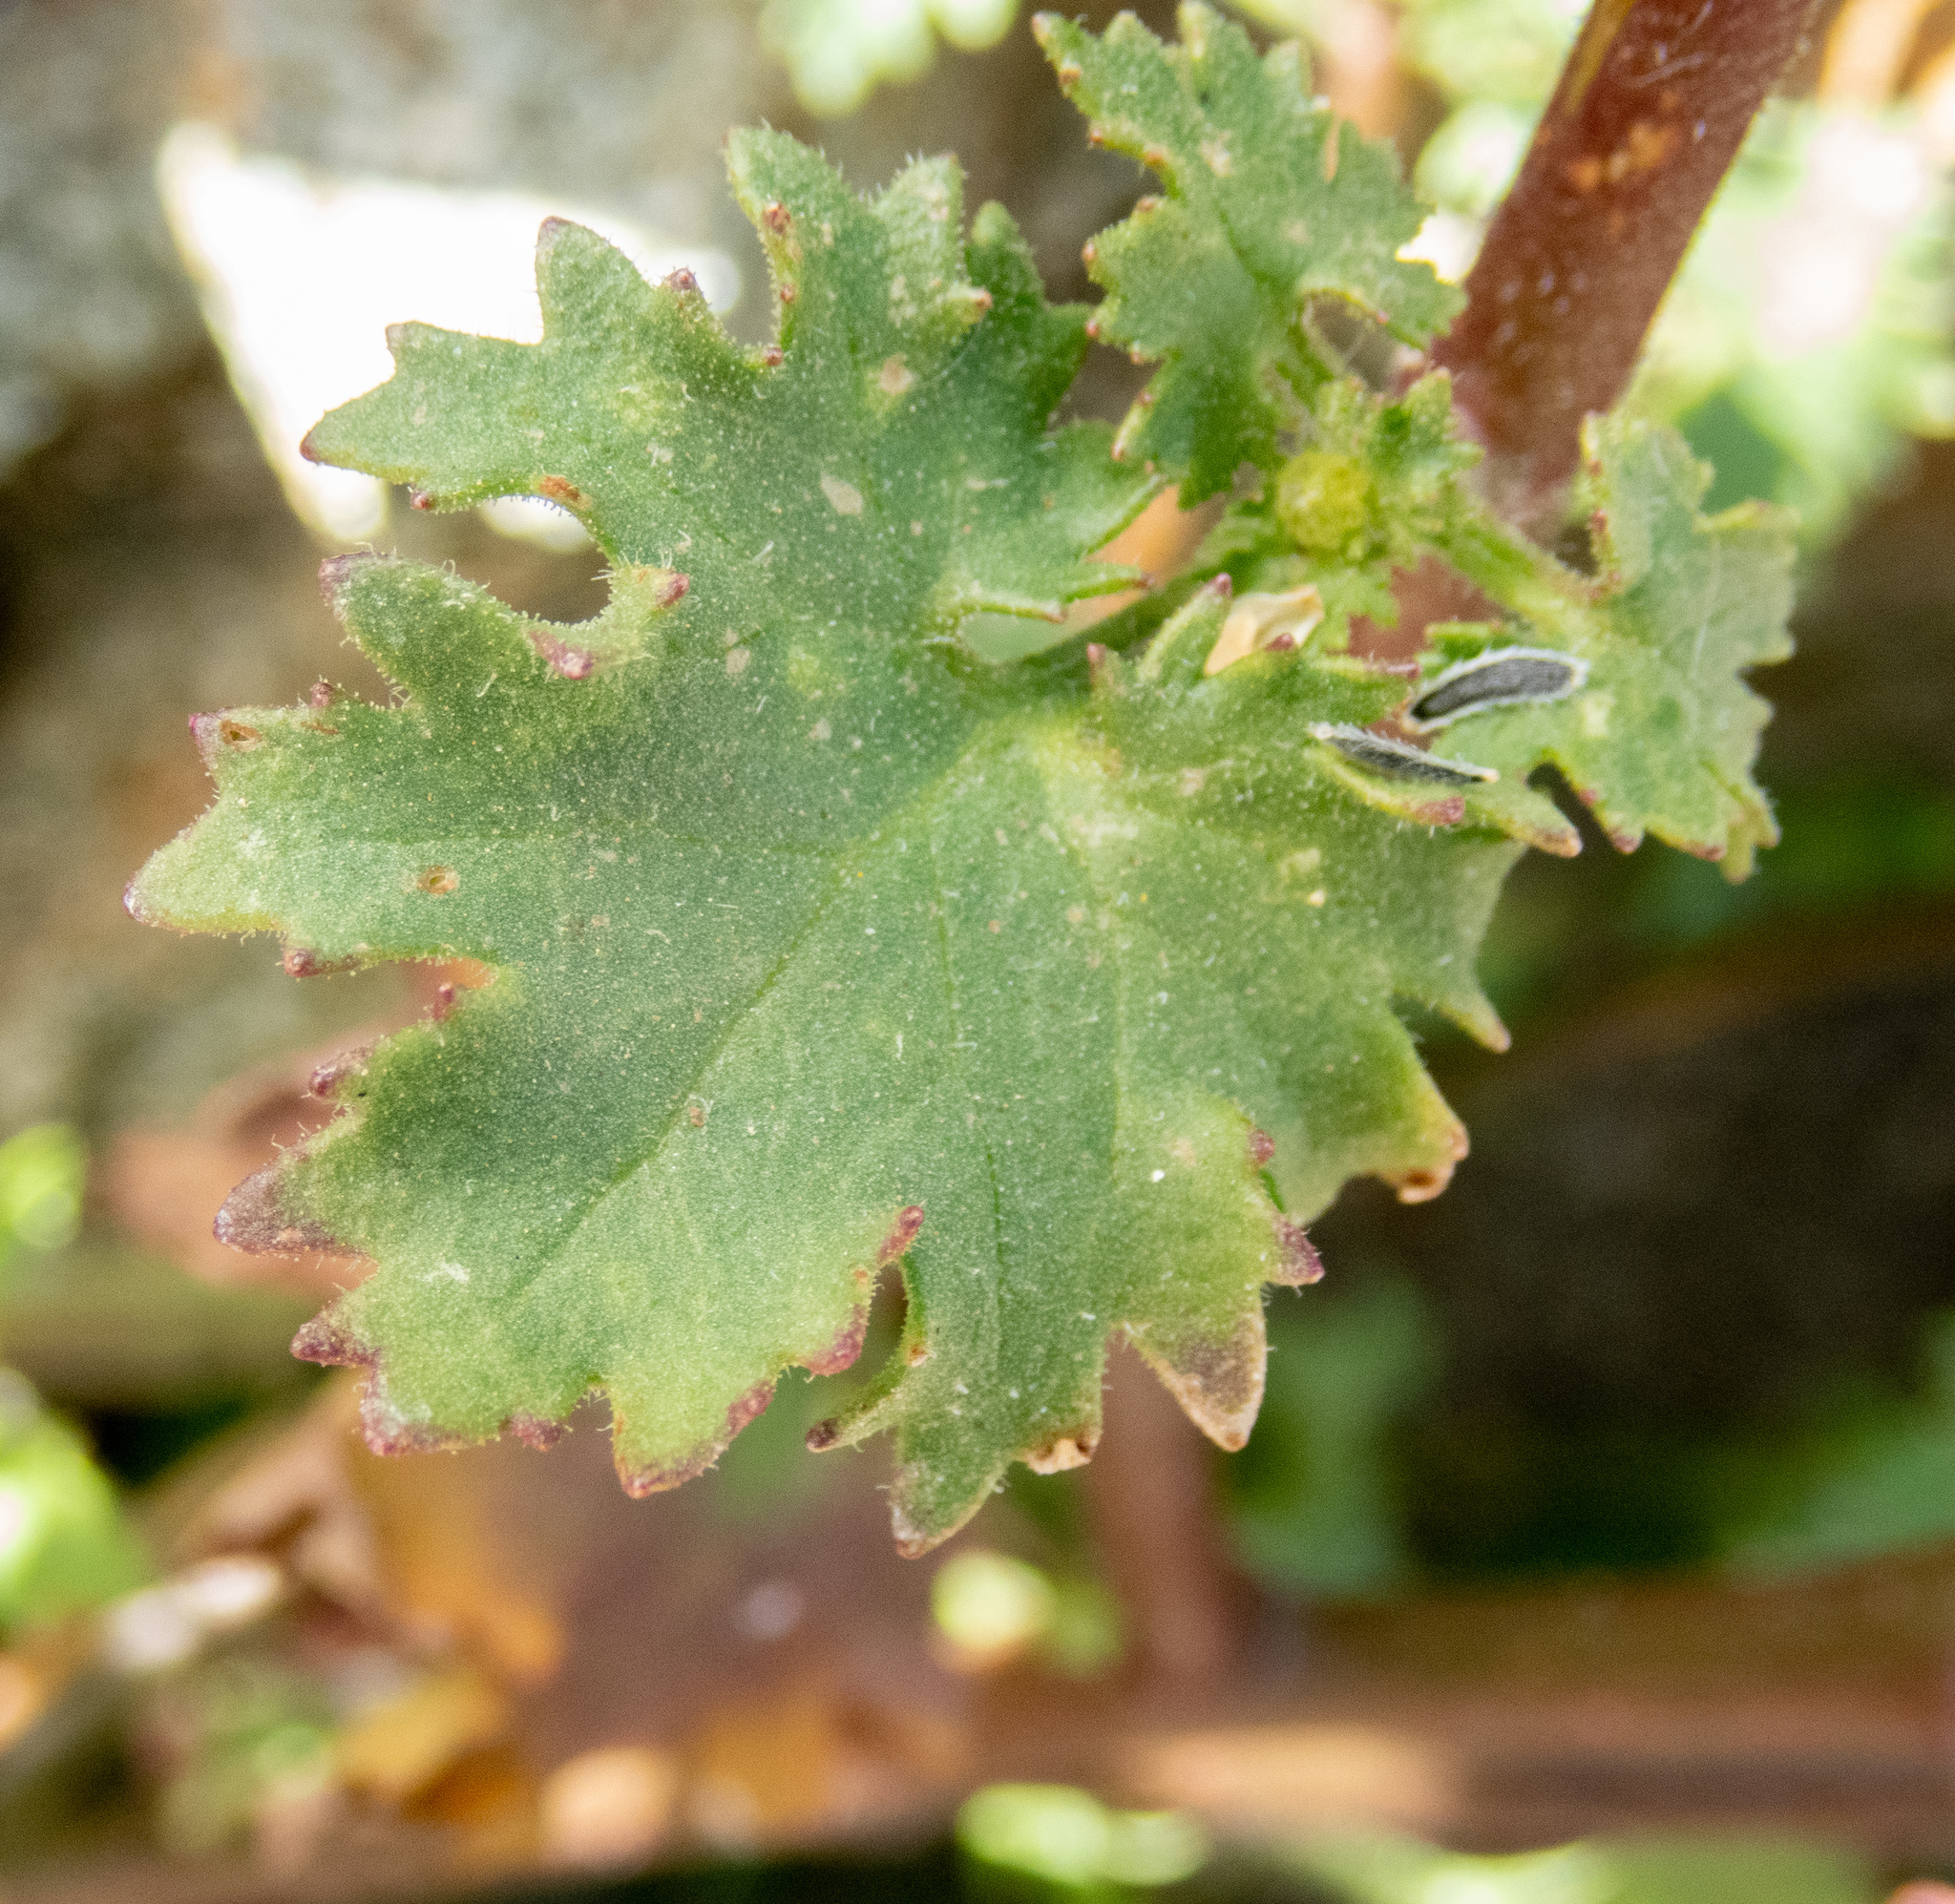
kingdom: Plantae
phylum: Tracheophyta
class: Magnoliopsida
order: Asterales
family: Asteraceae
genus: Laphamia
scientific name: Laphamia emoryi
